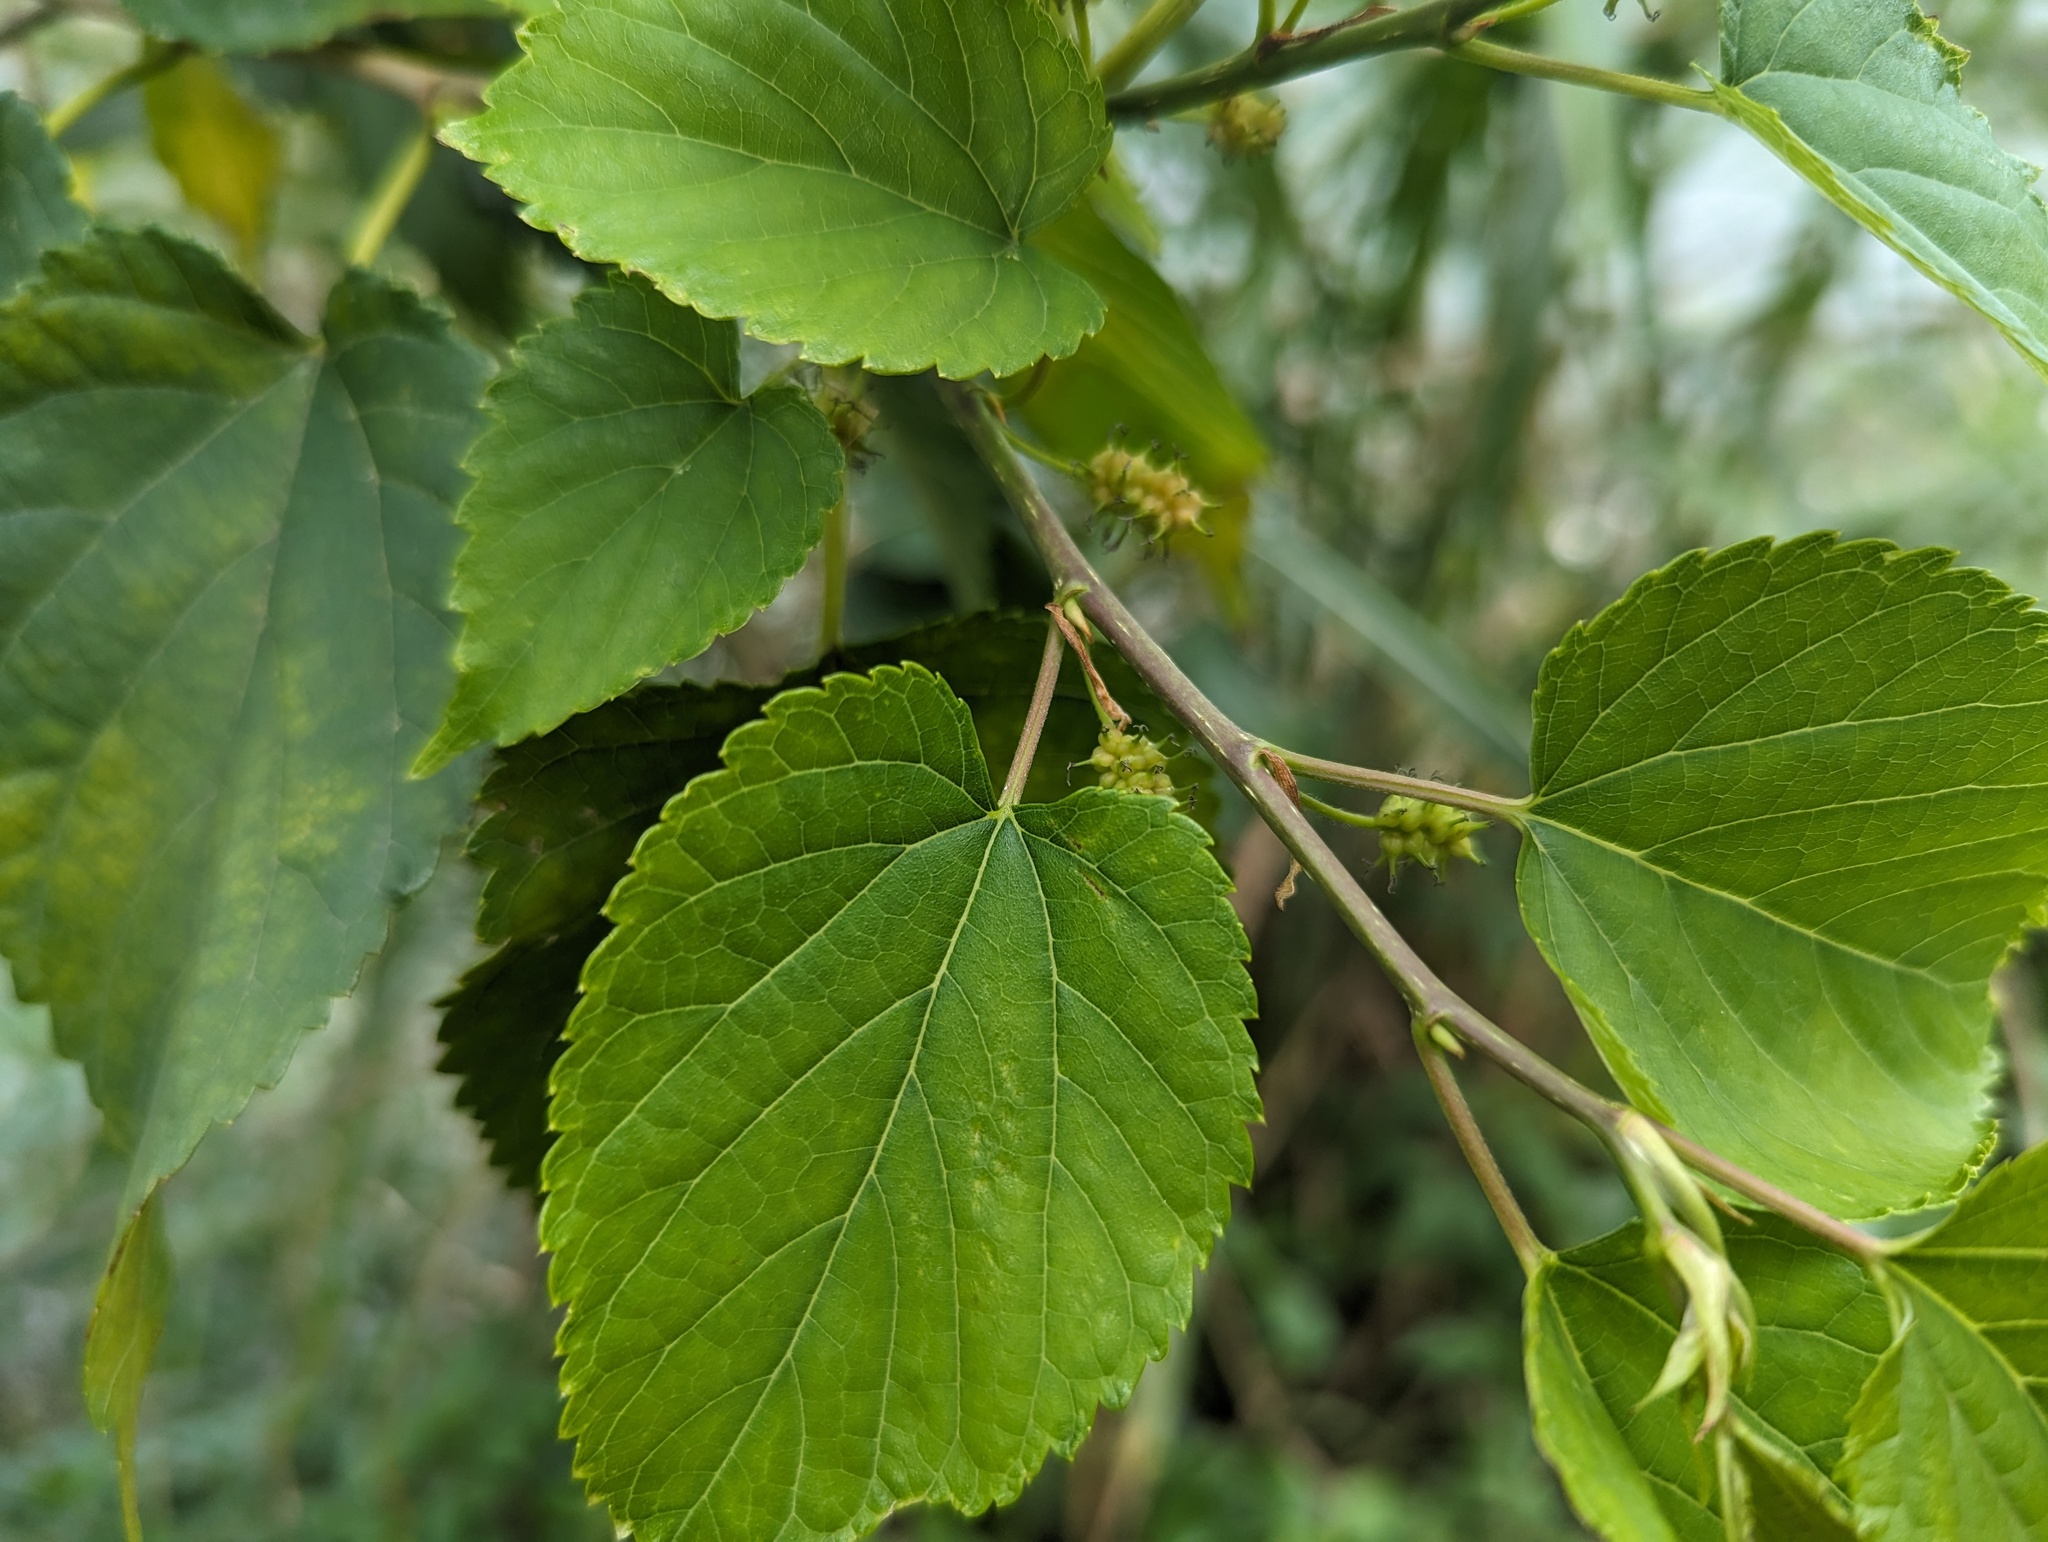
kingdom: Plantae
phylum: Tracheophyta
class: Magnoliopsida
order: Rosales
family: Moraceae
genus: Morus
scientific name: Morus indica
